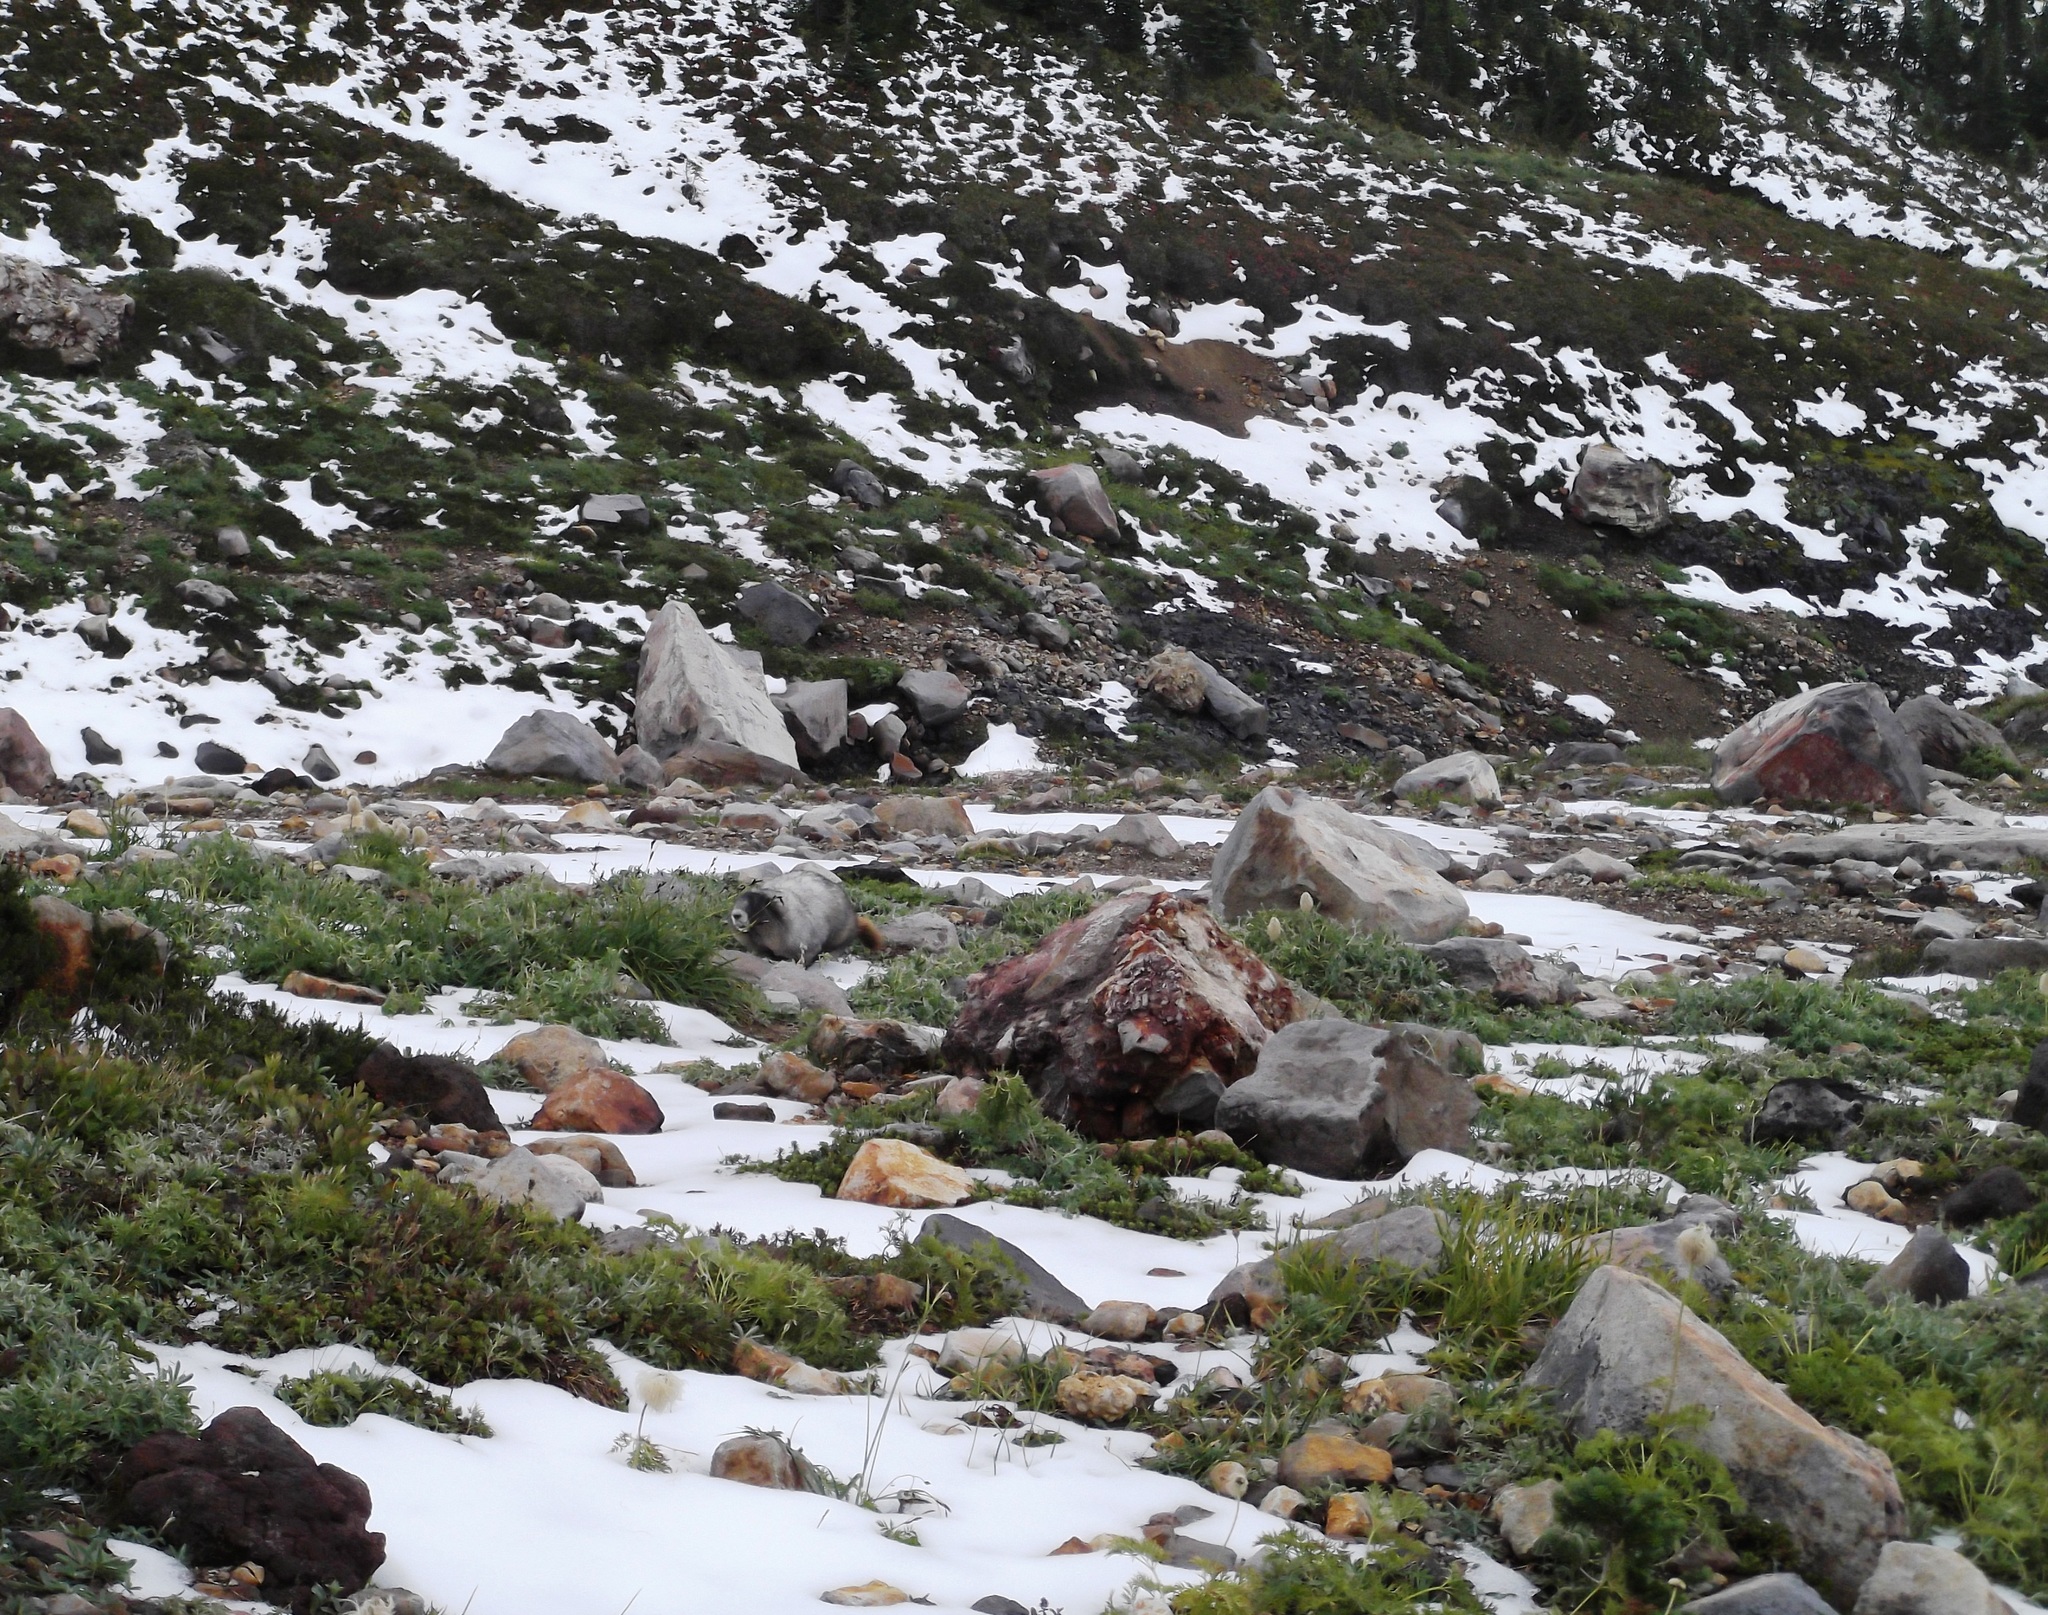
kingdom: Animalia
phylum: Chordata
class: Mammalia
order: Rodentia
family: Sciuridae
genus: Marmota
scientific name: Marmota caligata
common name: Hoary marmot
